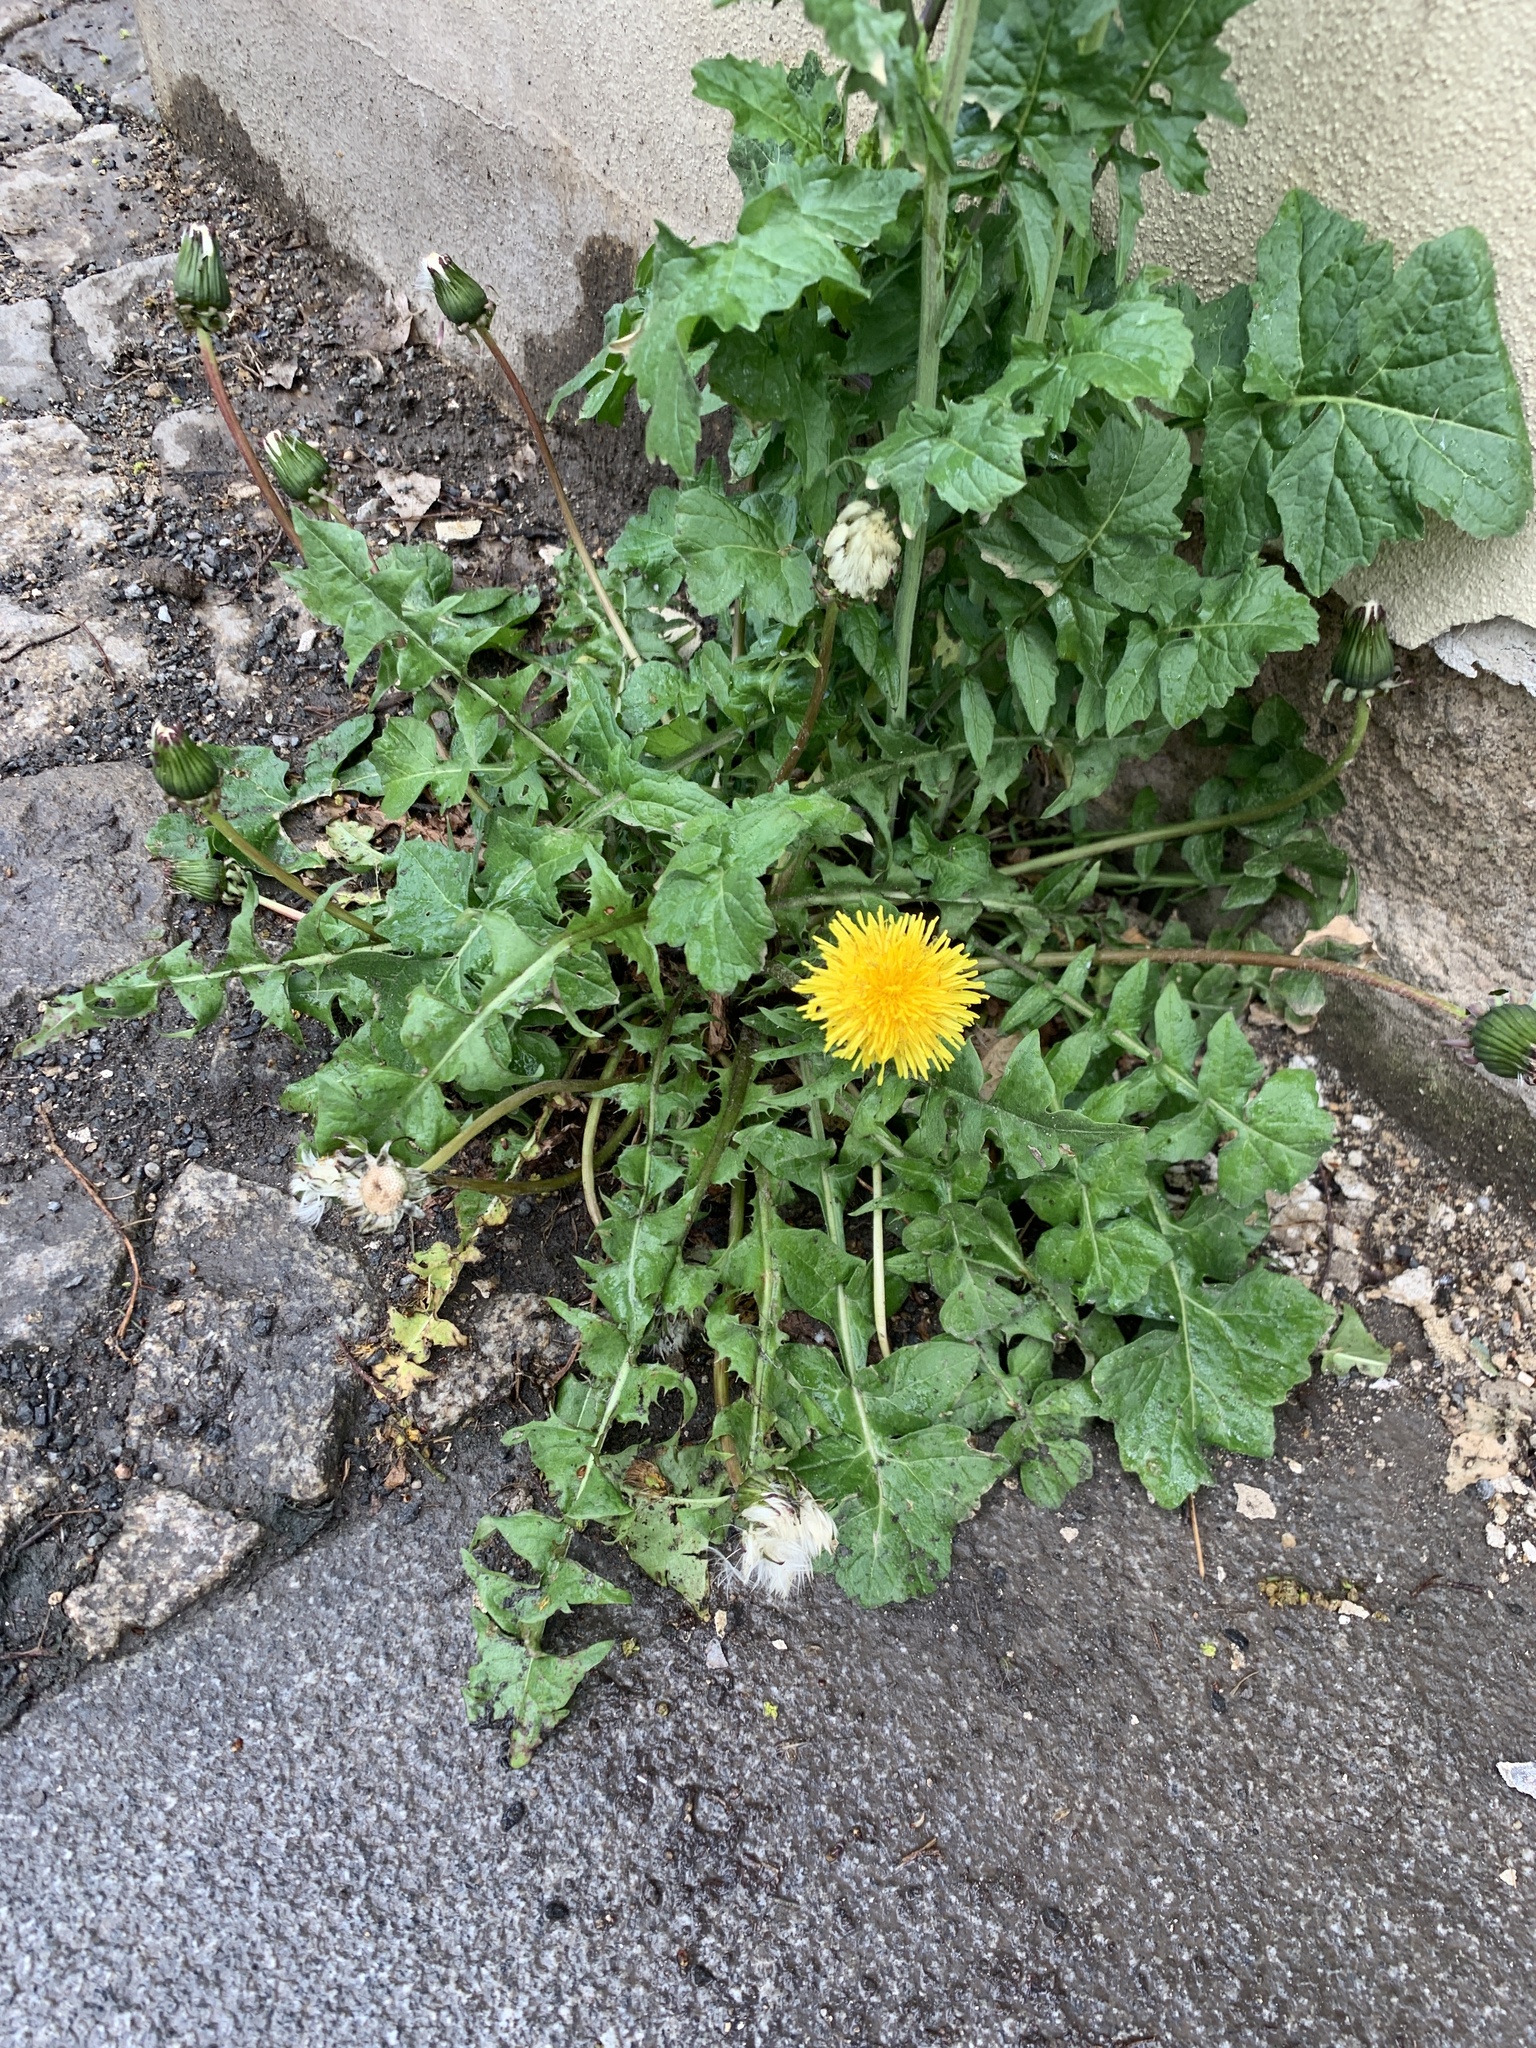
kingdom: Plantae
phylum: Tracheophyta
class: Magnoliopsida
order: Asterales
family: Asteraceae
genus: Taraxacum
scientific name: Taraxacum officinale
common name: Common dandelion
